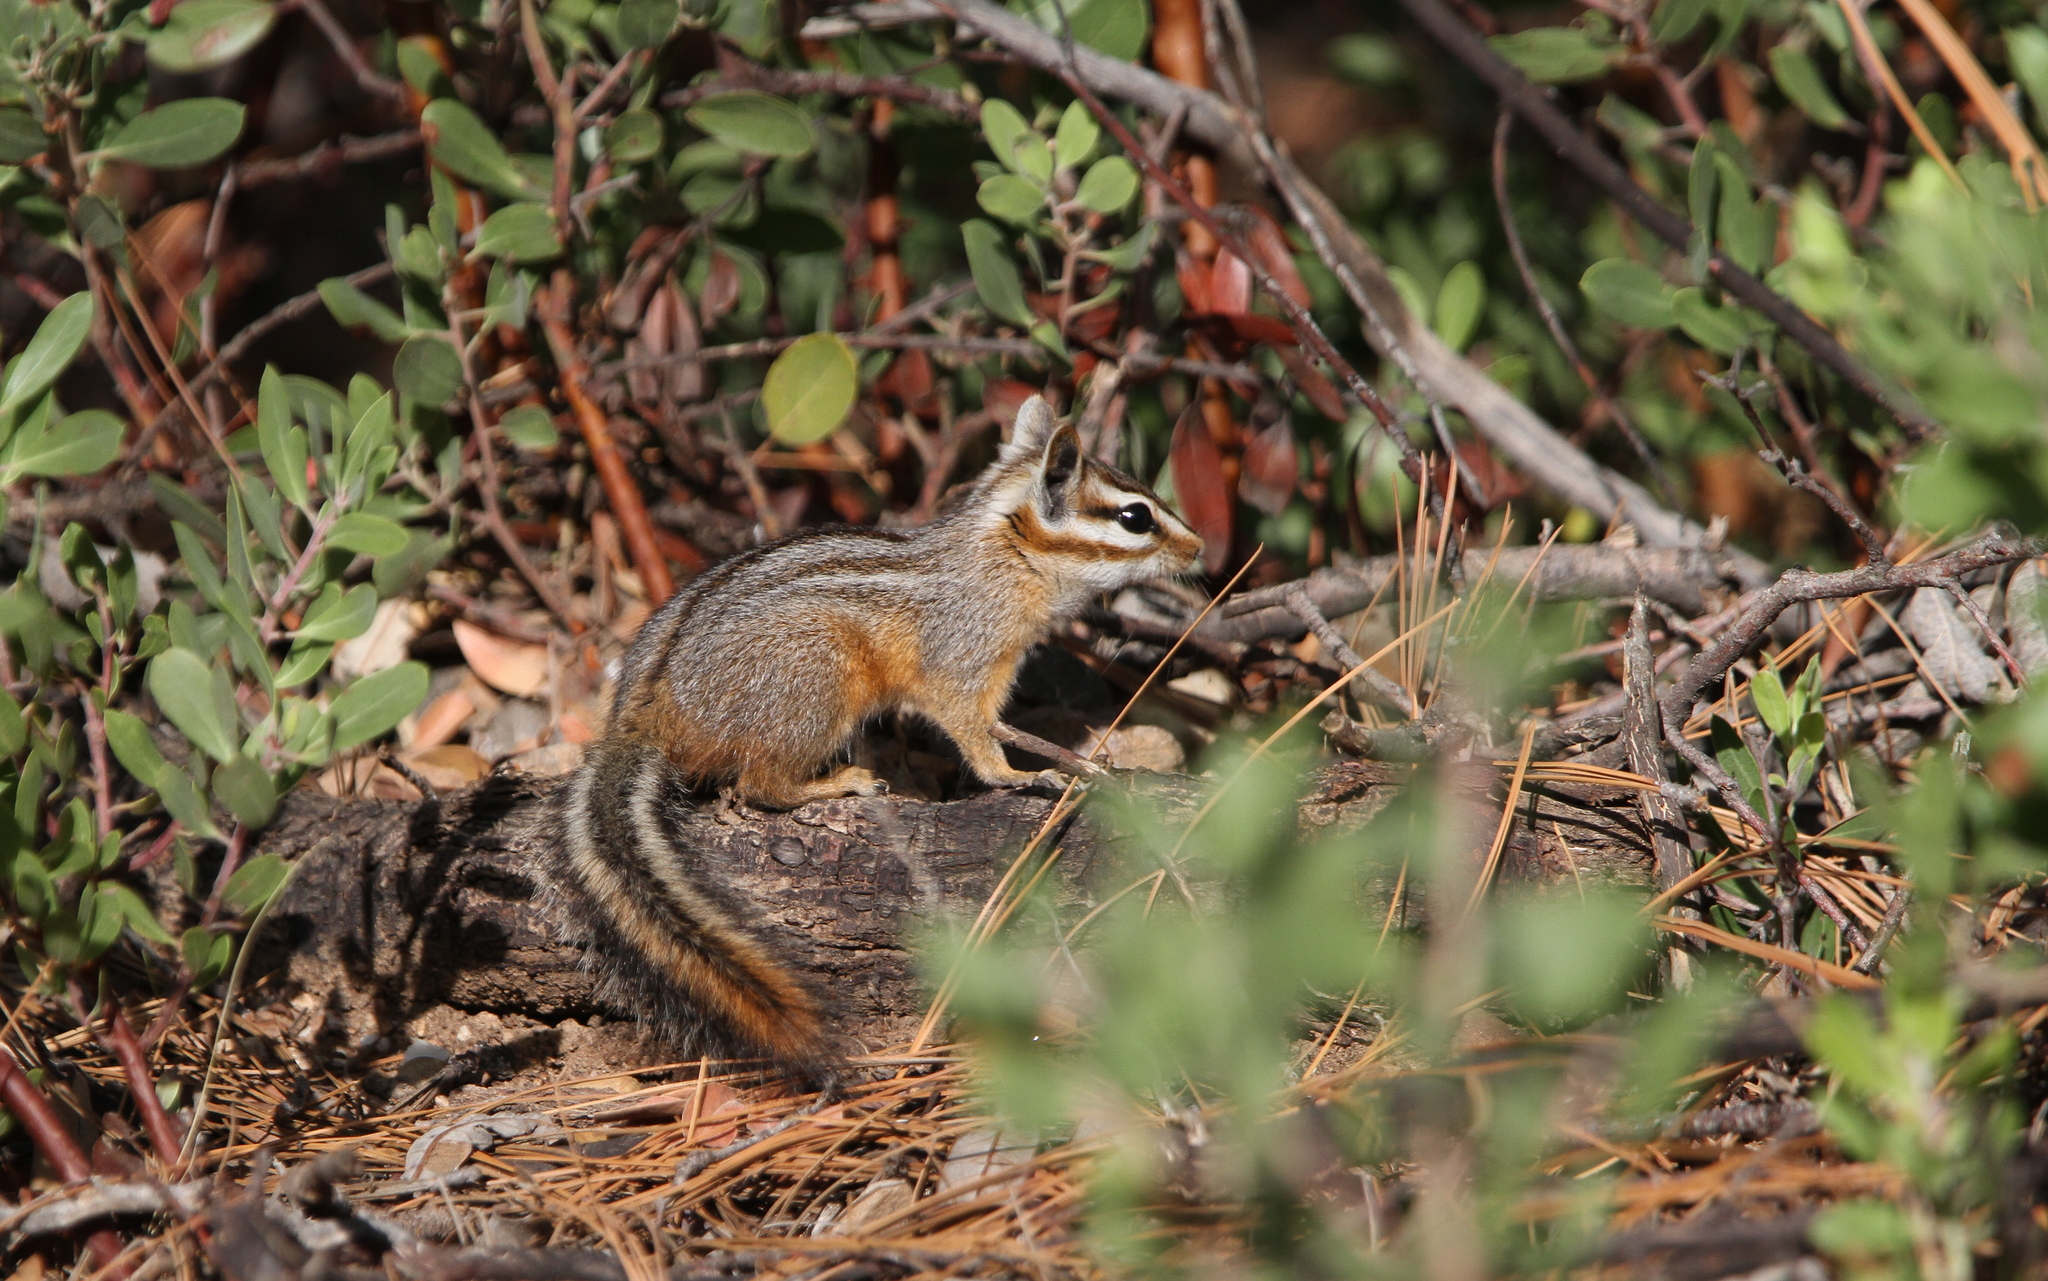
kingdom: Animalia
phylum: Chordata
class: Mammalia
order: Rodentia
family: Sciuridae
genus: Tamias
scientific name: Tamias dorsalis
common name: Cliff chipmunk
